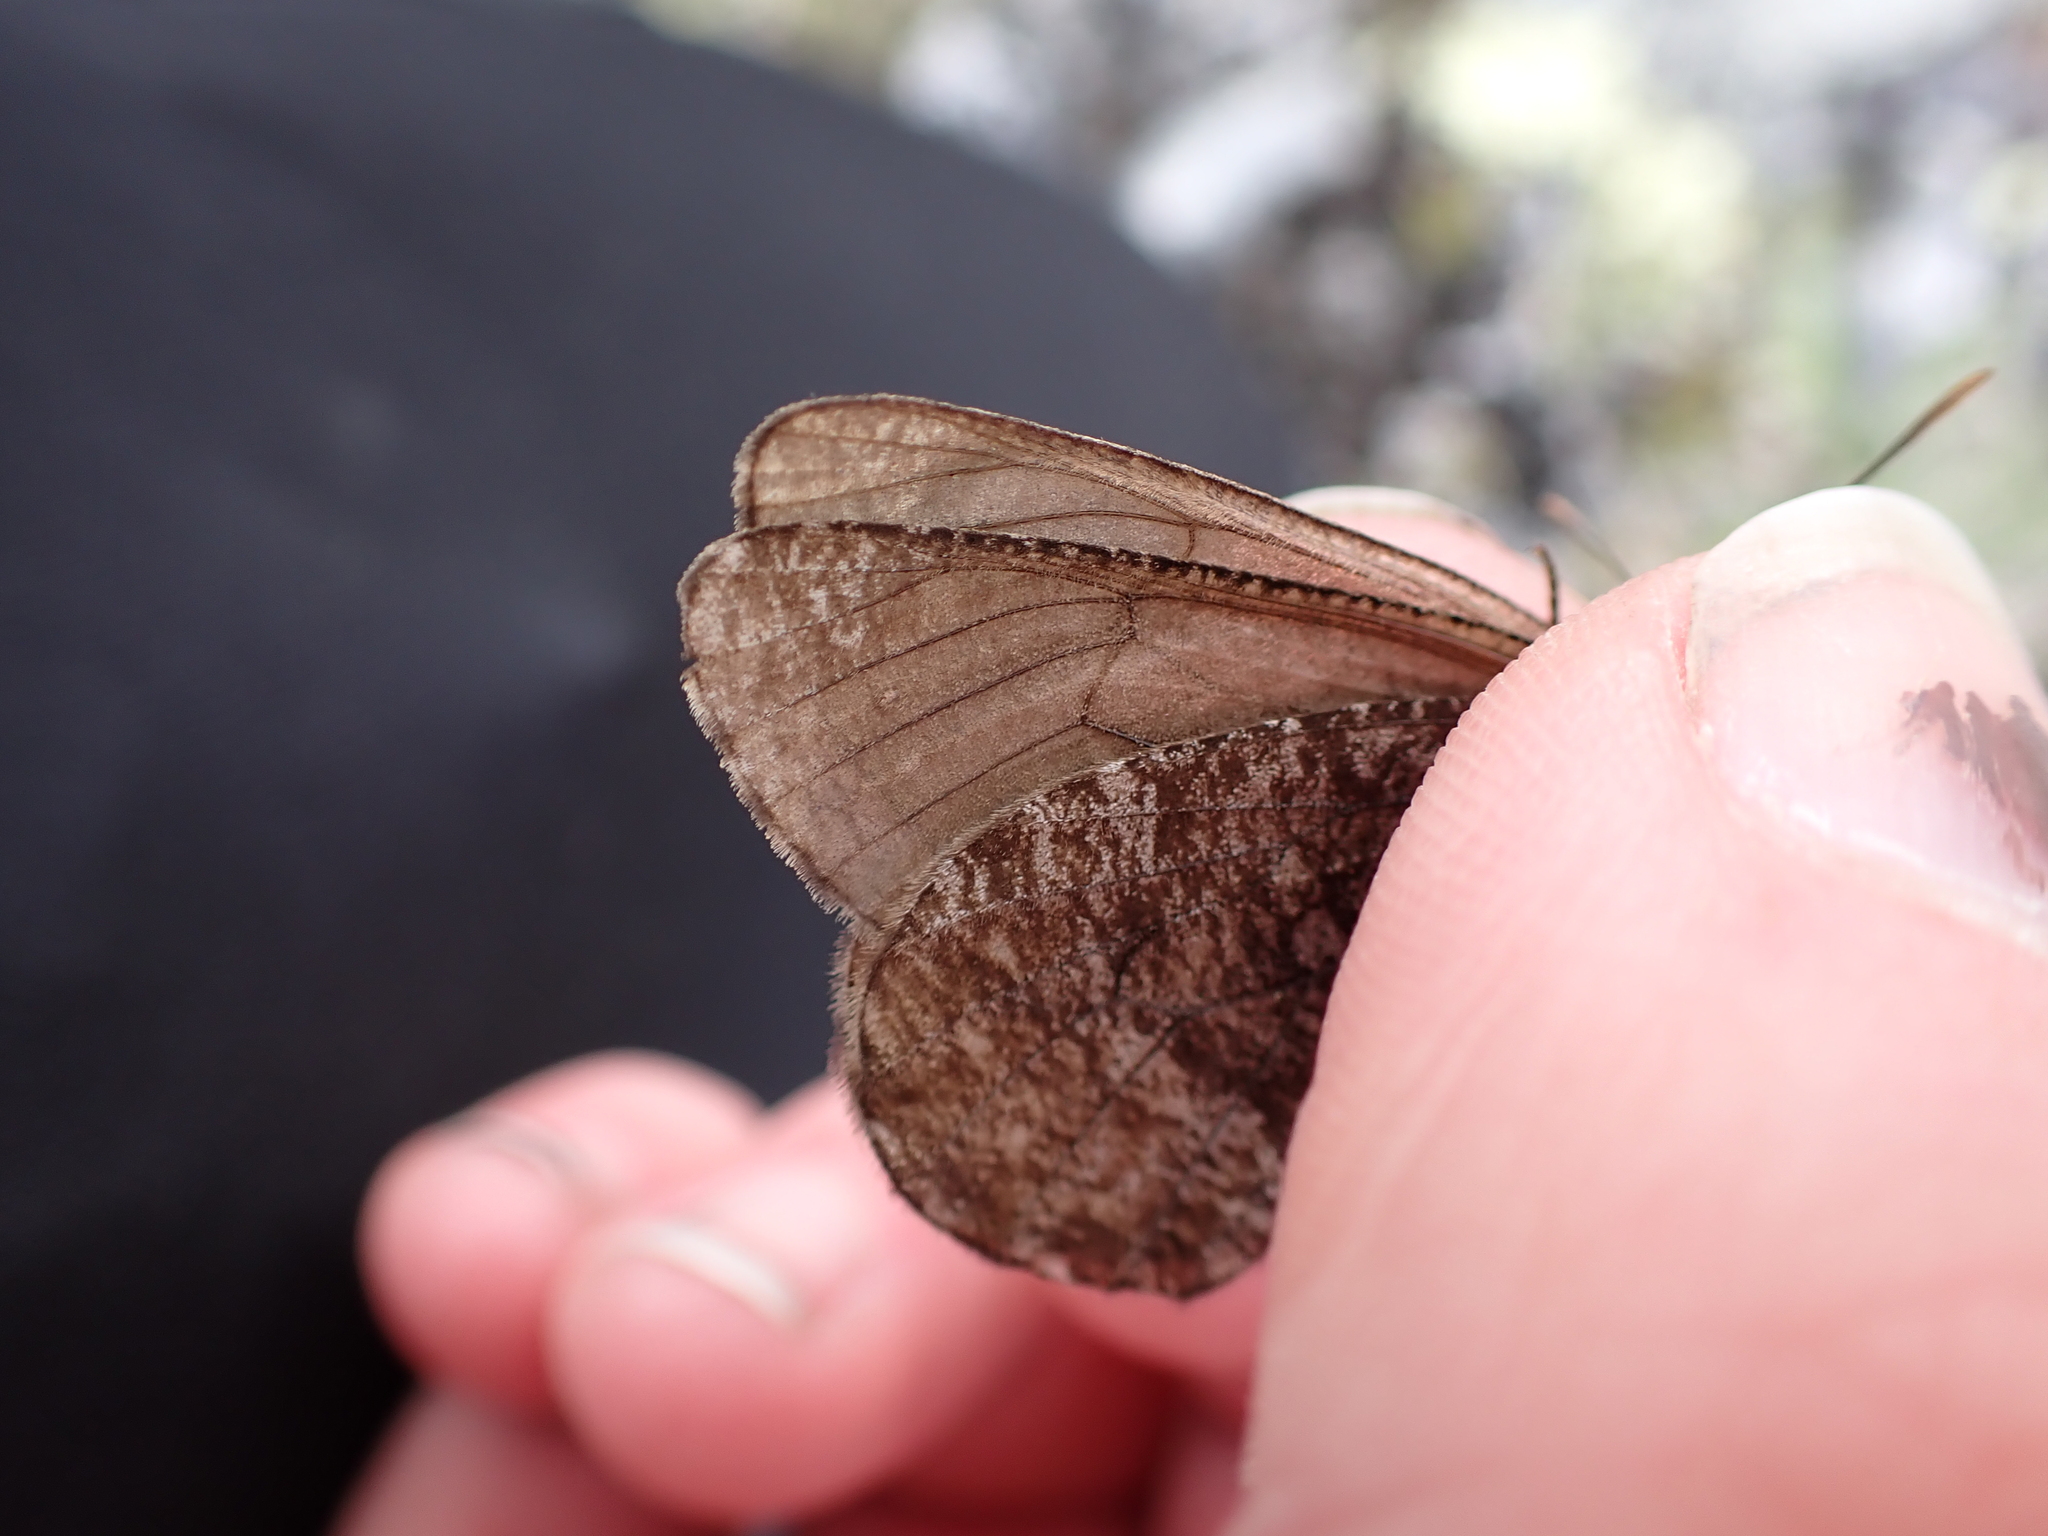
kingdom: Animalia
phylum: Arthropoda
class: Insecta
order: Lepidoptera
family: Nymphalidae
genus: Oeneis
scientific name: Oeneis melissa
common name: Melissa arctic
